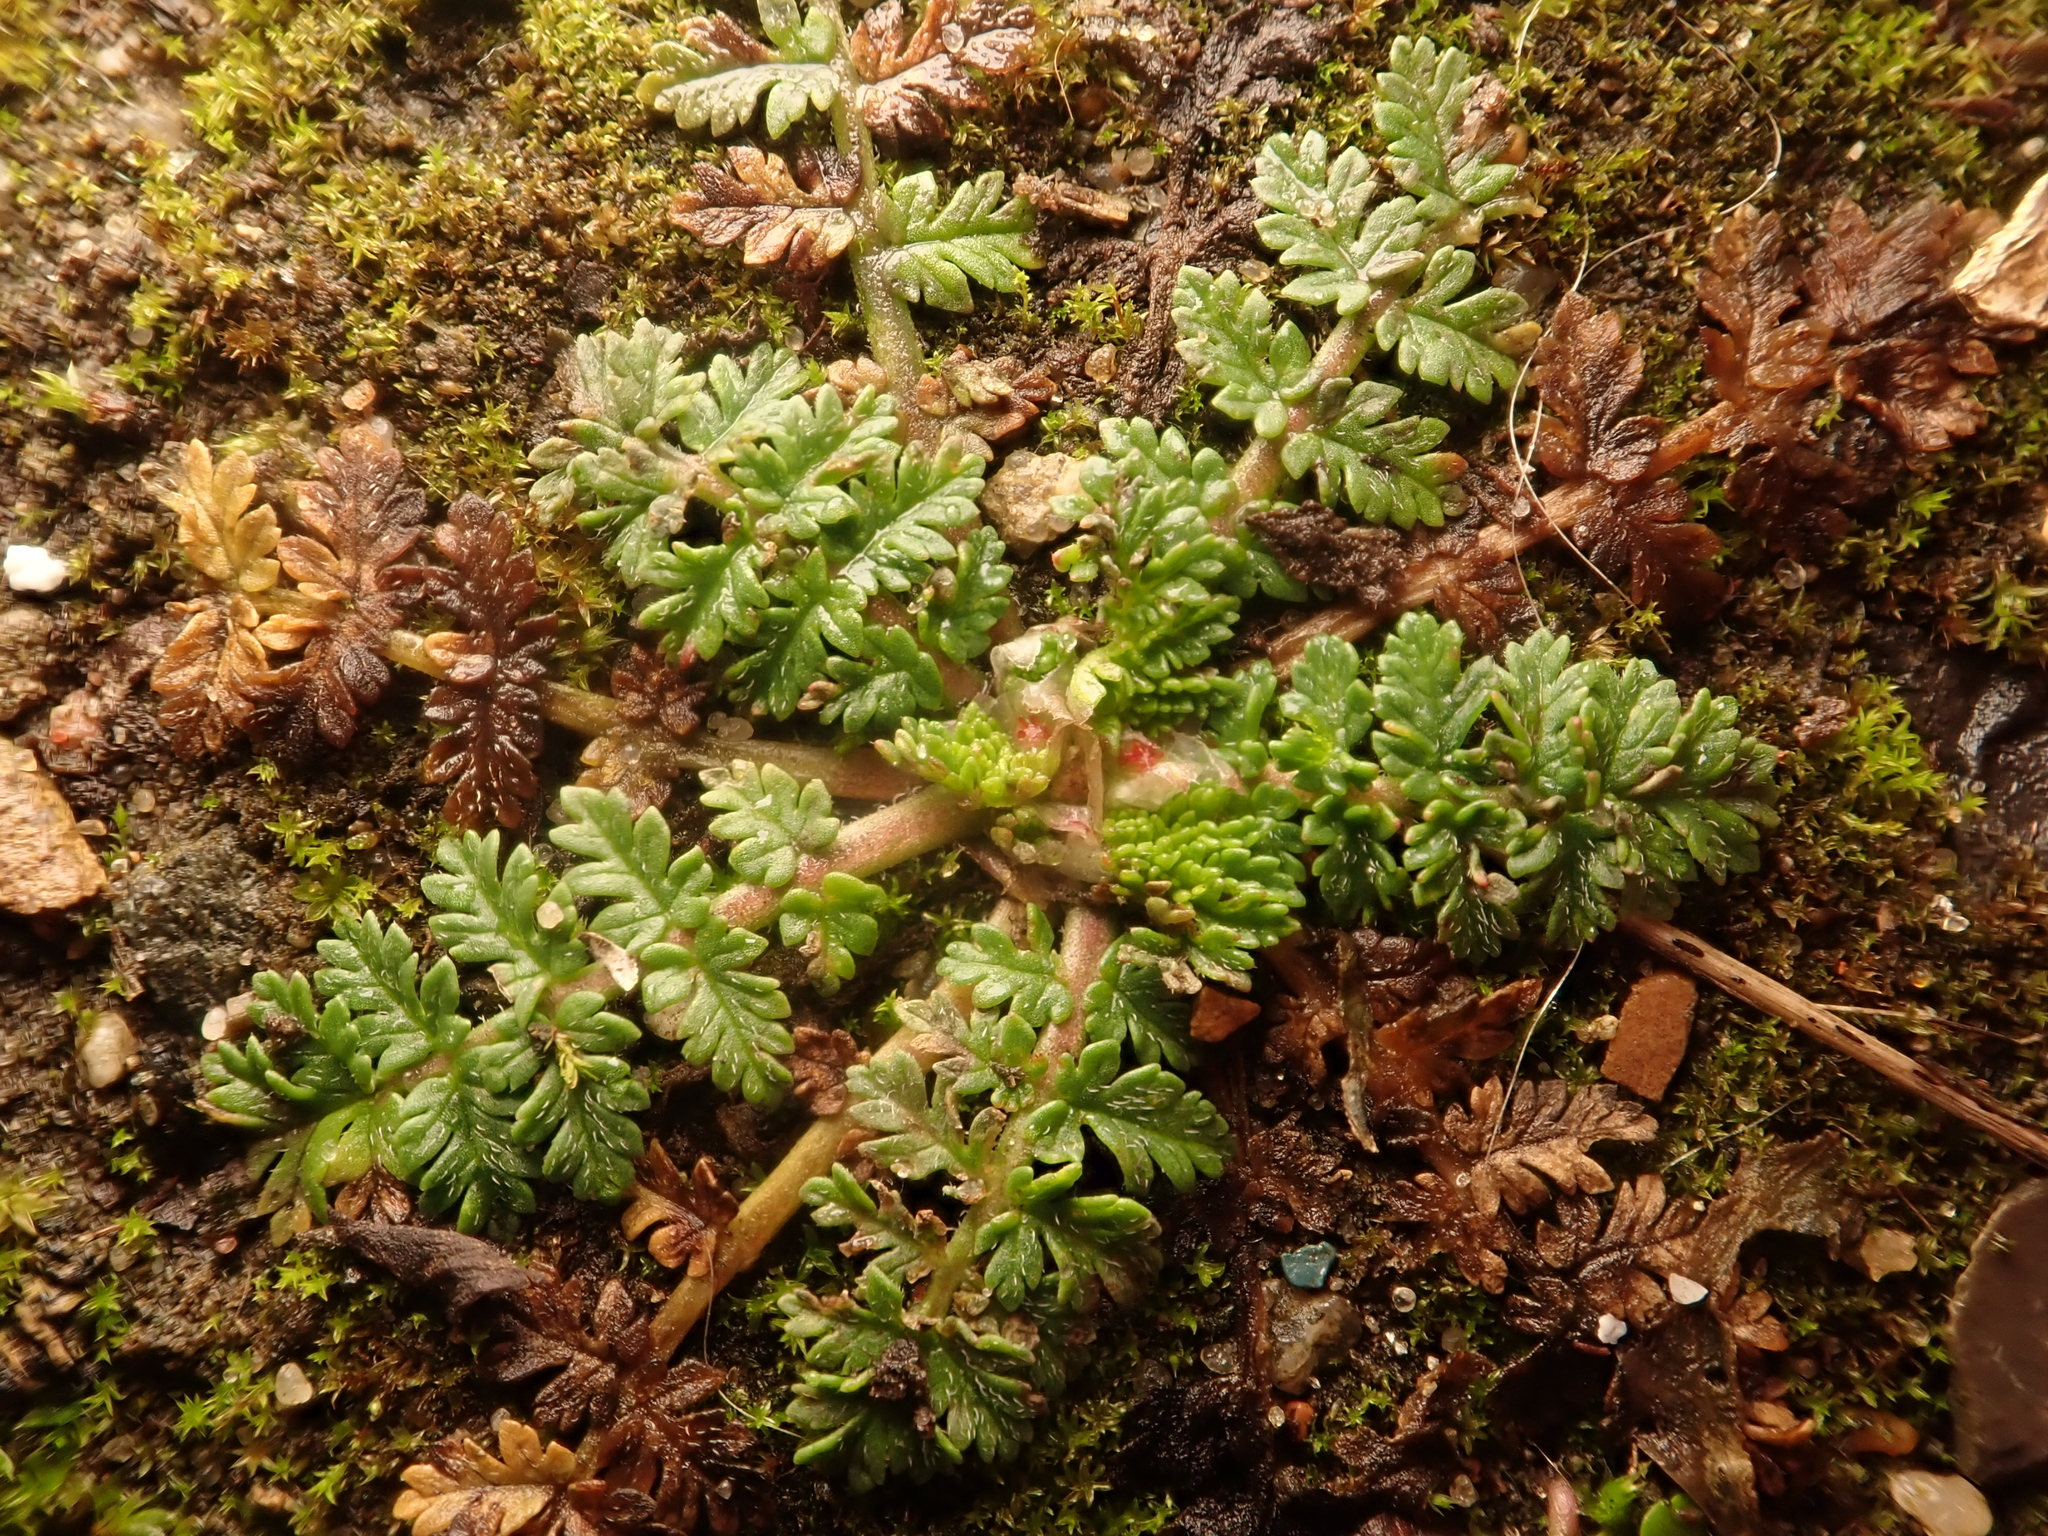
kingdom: Plantae
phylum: Tracheophyta
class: Magnoliopsida
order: Geraniales
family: Geraniaceae
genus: Erodium
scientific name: Erodium cicutarium
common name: Common stork's-bill
